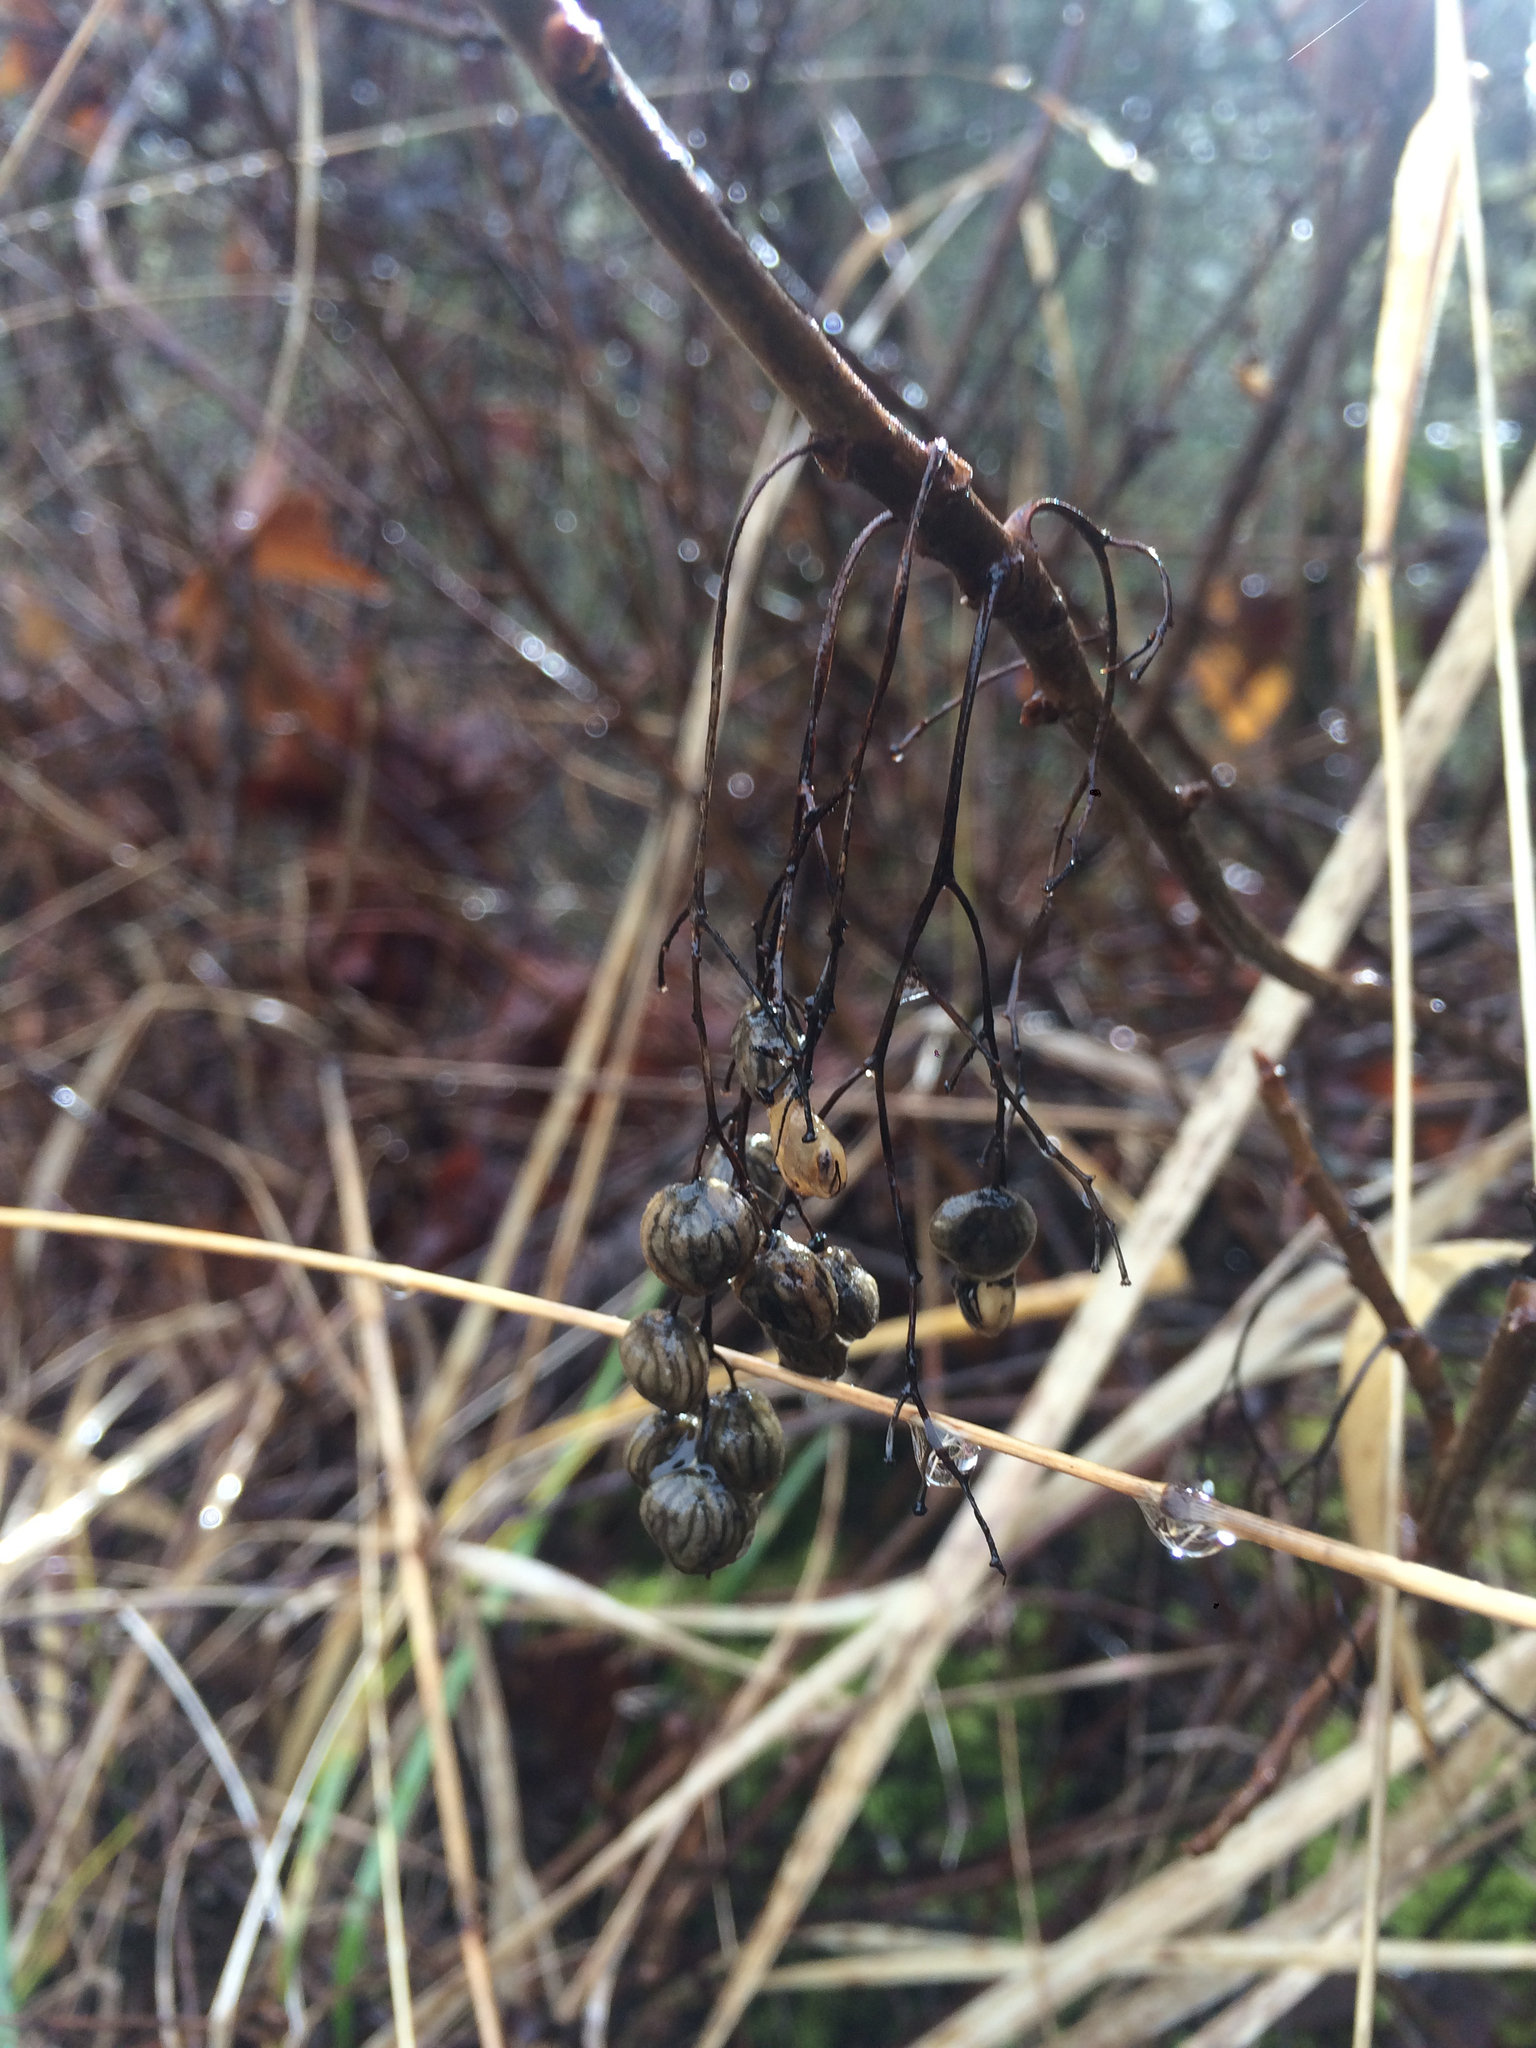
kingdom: Plantae
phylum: Tracheophyta
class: Magnoliopsida
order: Sapindales
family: Anacardiaceae
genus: Toxicodendron
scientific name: Toxicodendron diversilobum
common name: Pacific poison-oak
